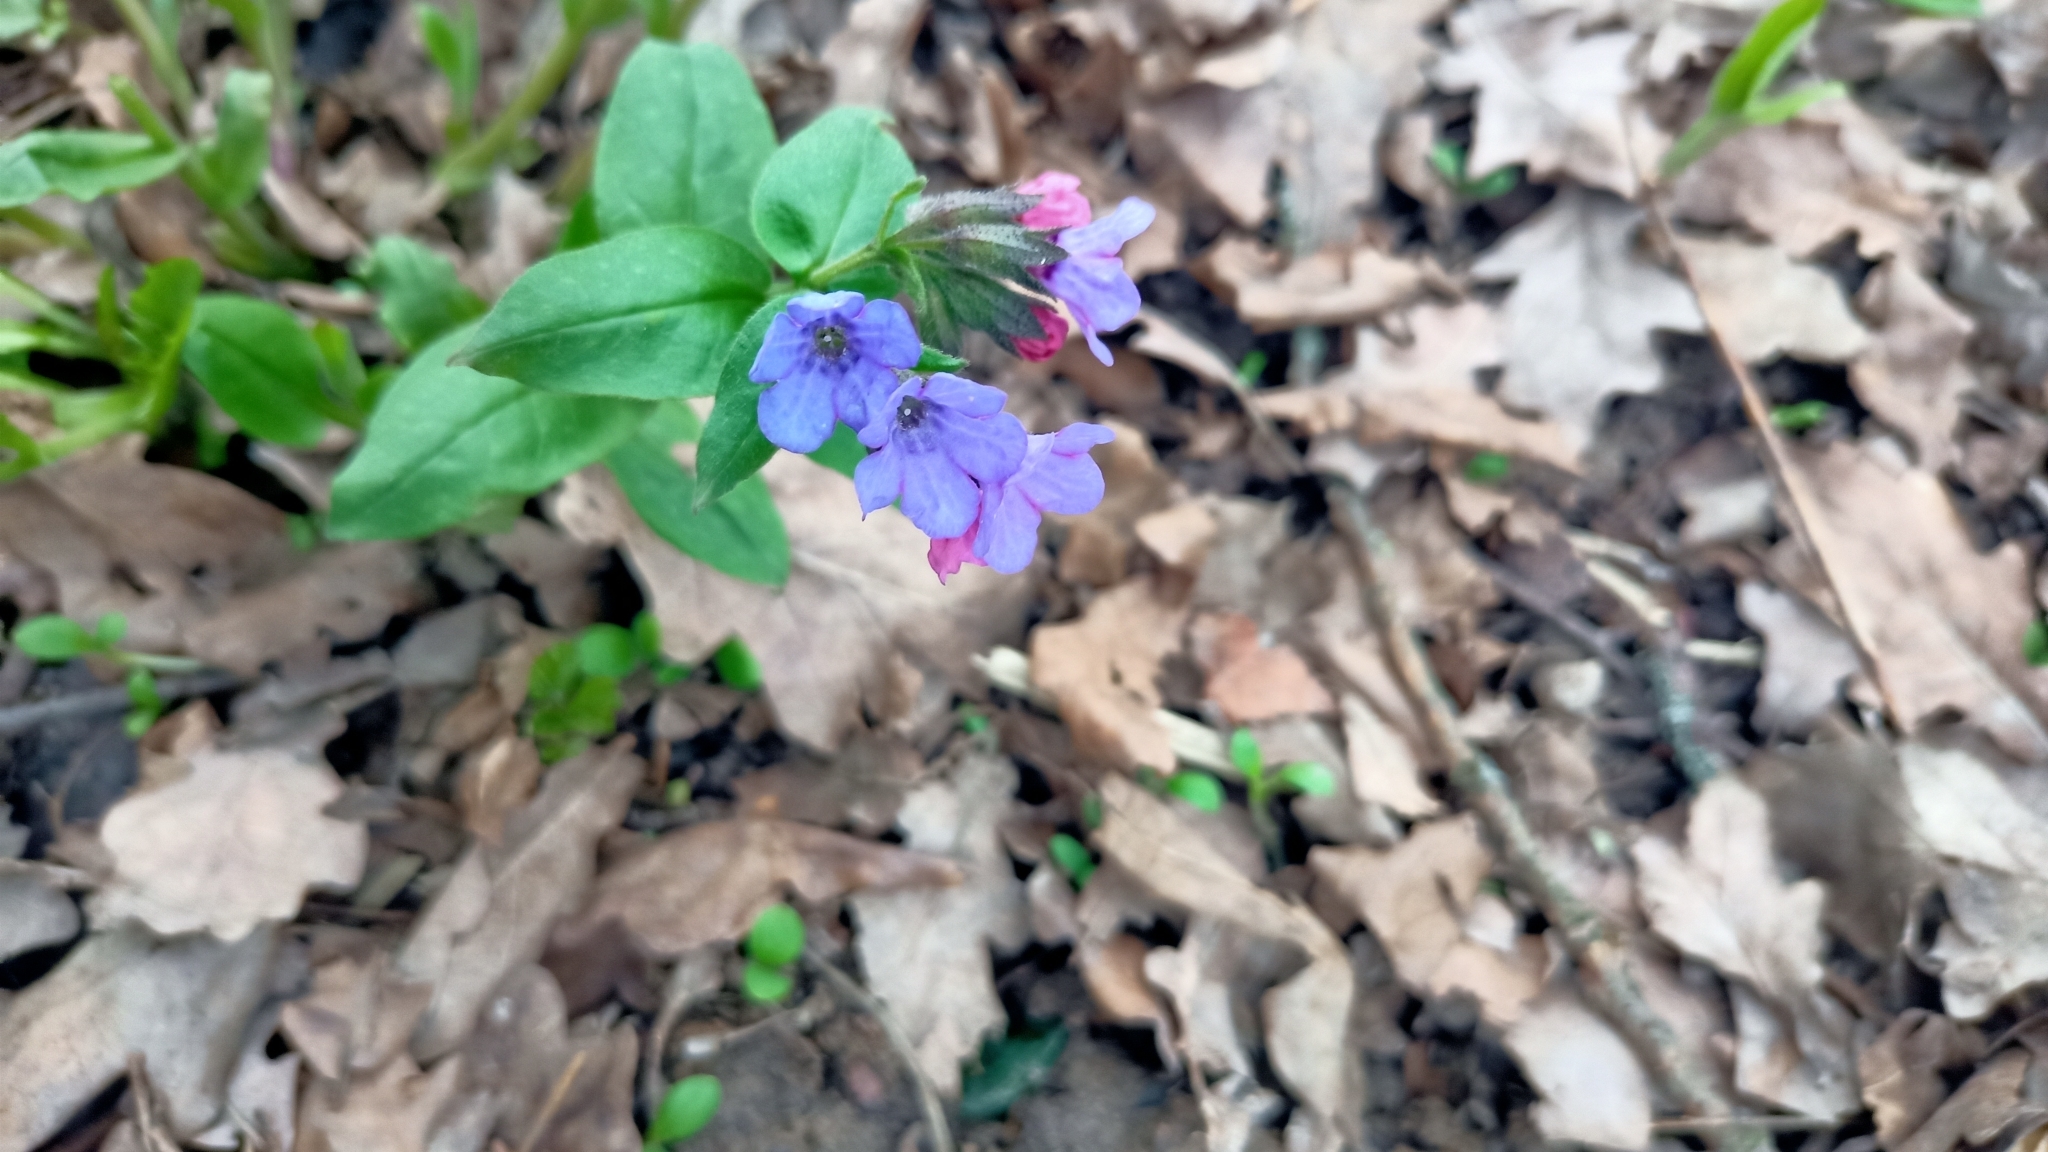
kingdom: Plantae
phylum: Tracheophyta
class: Magnoliopsida
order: Boraginales
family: Boraginaceae
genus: Pulmonaria
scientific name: Pulmonaria obscura
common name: Suffolk lungwort
